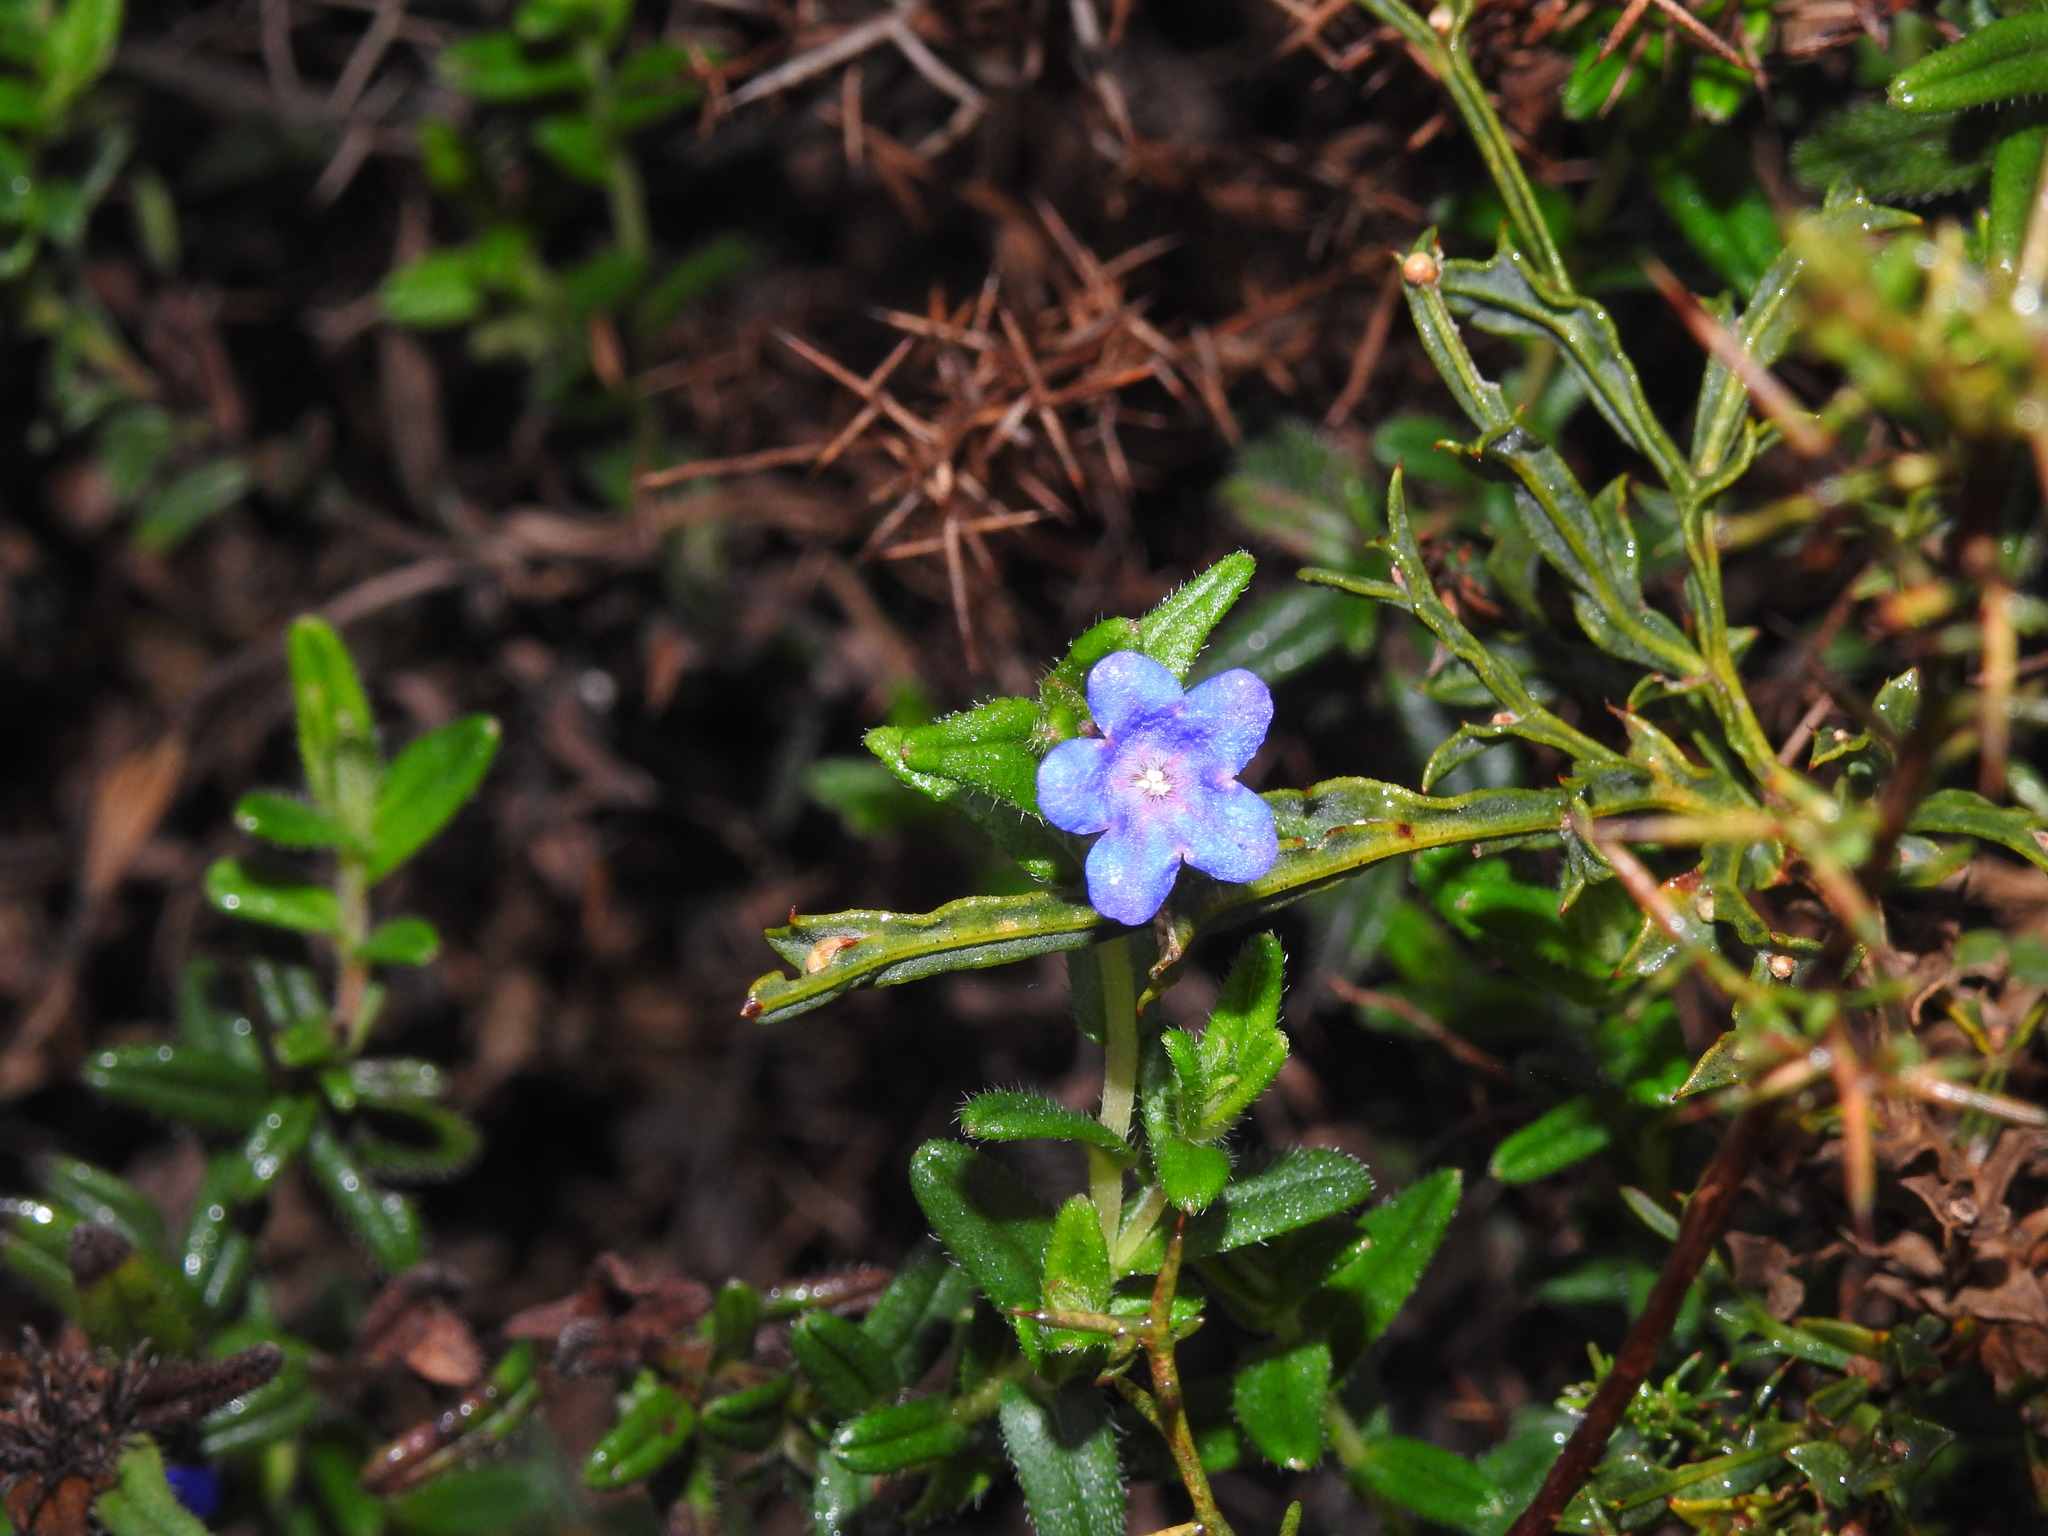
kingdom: Plantae
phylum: Tracheophyta
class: Magnoliopsida
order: Boraginales
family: Boraginaceae
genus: Glandora
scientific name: Glandora prostrata
